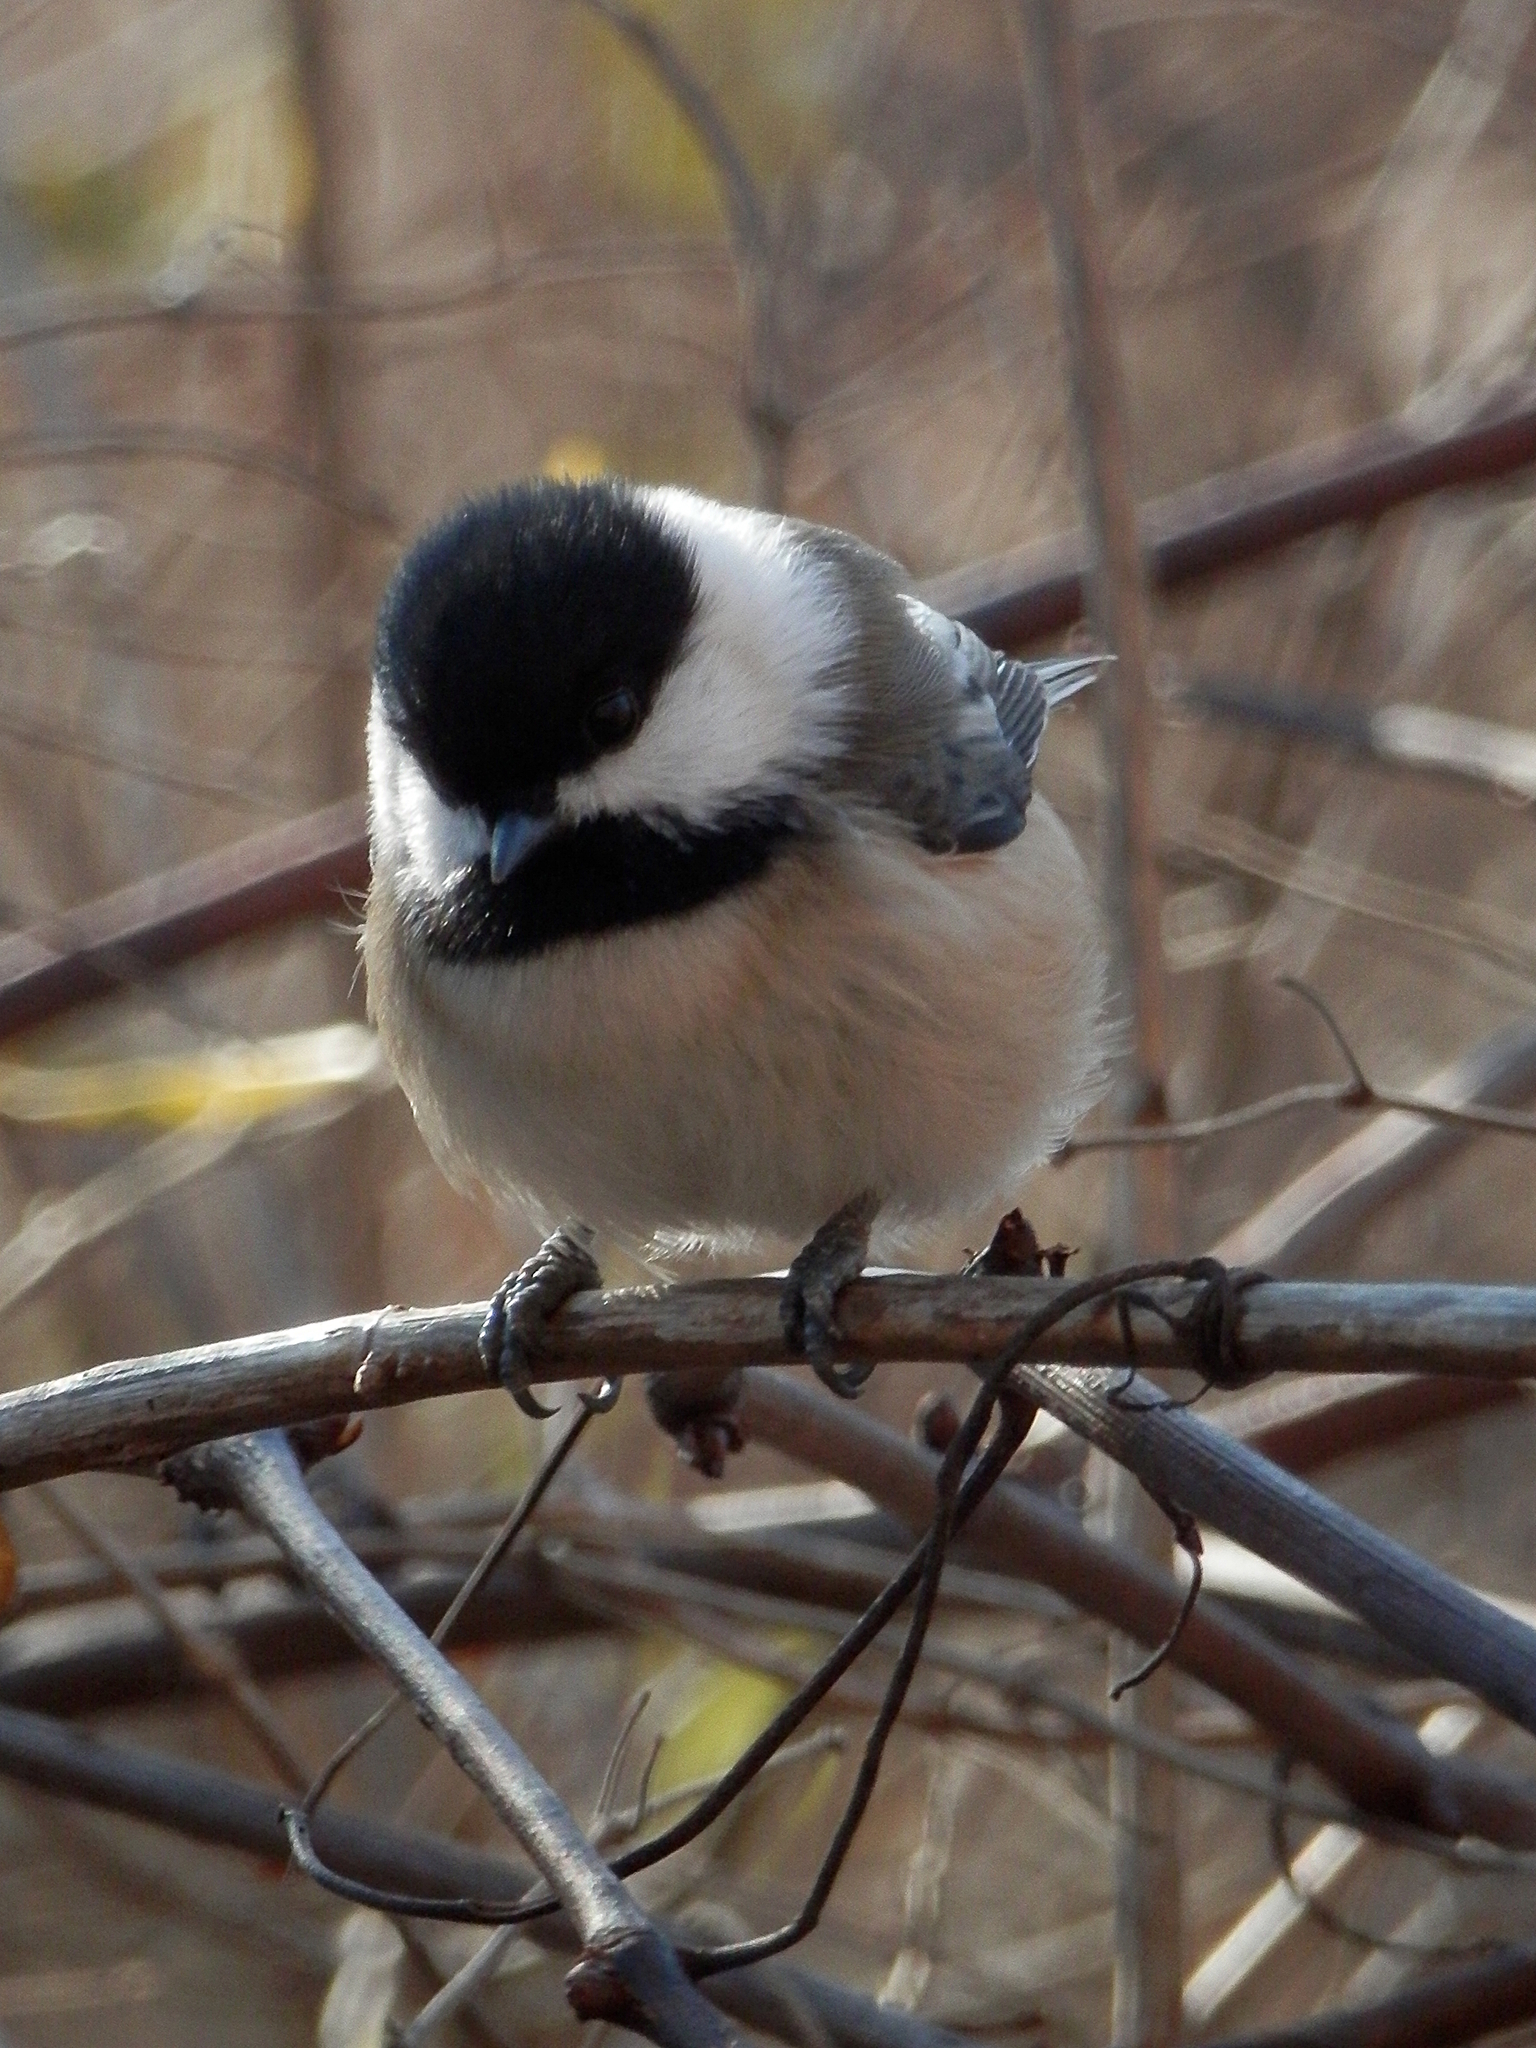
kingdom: Animalia
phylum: Chordata
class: Aves
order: Passeriformes
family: Paridae
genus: Poecile
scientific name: Poecile atricapillus
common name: Black-capped chickadee
